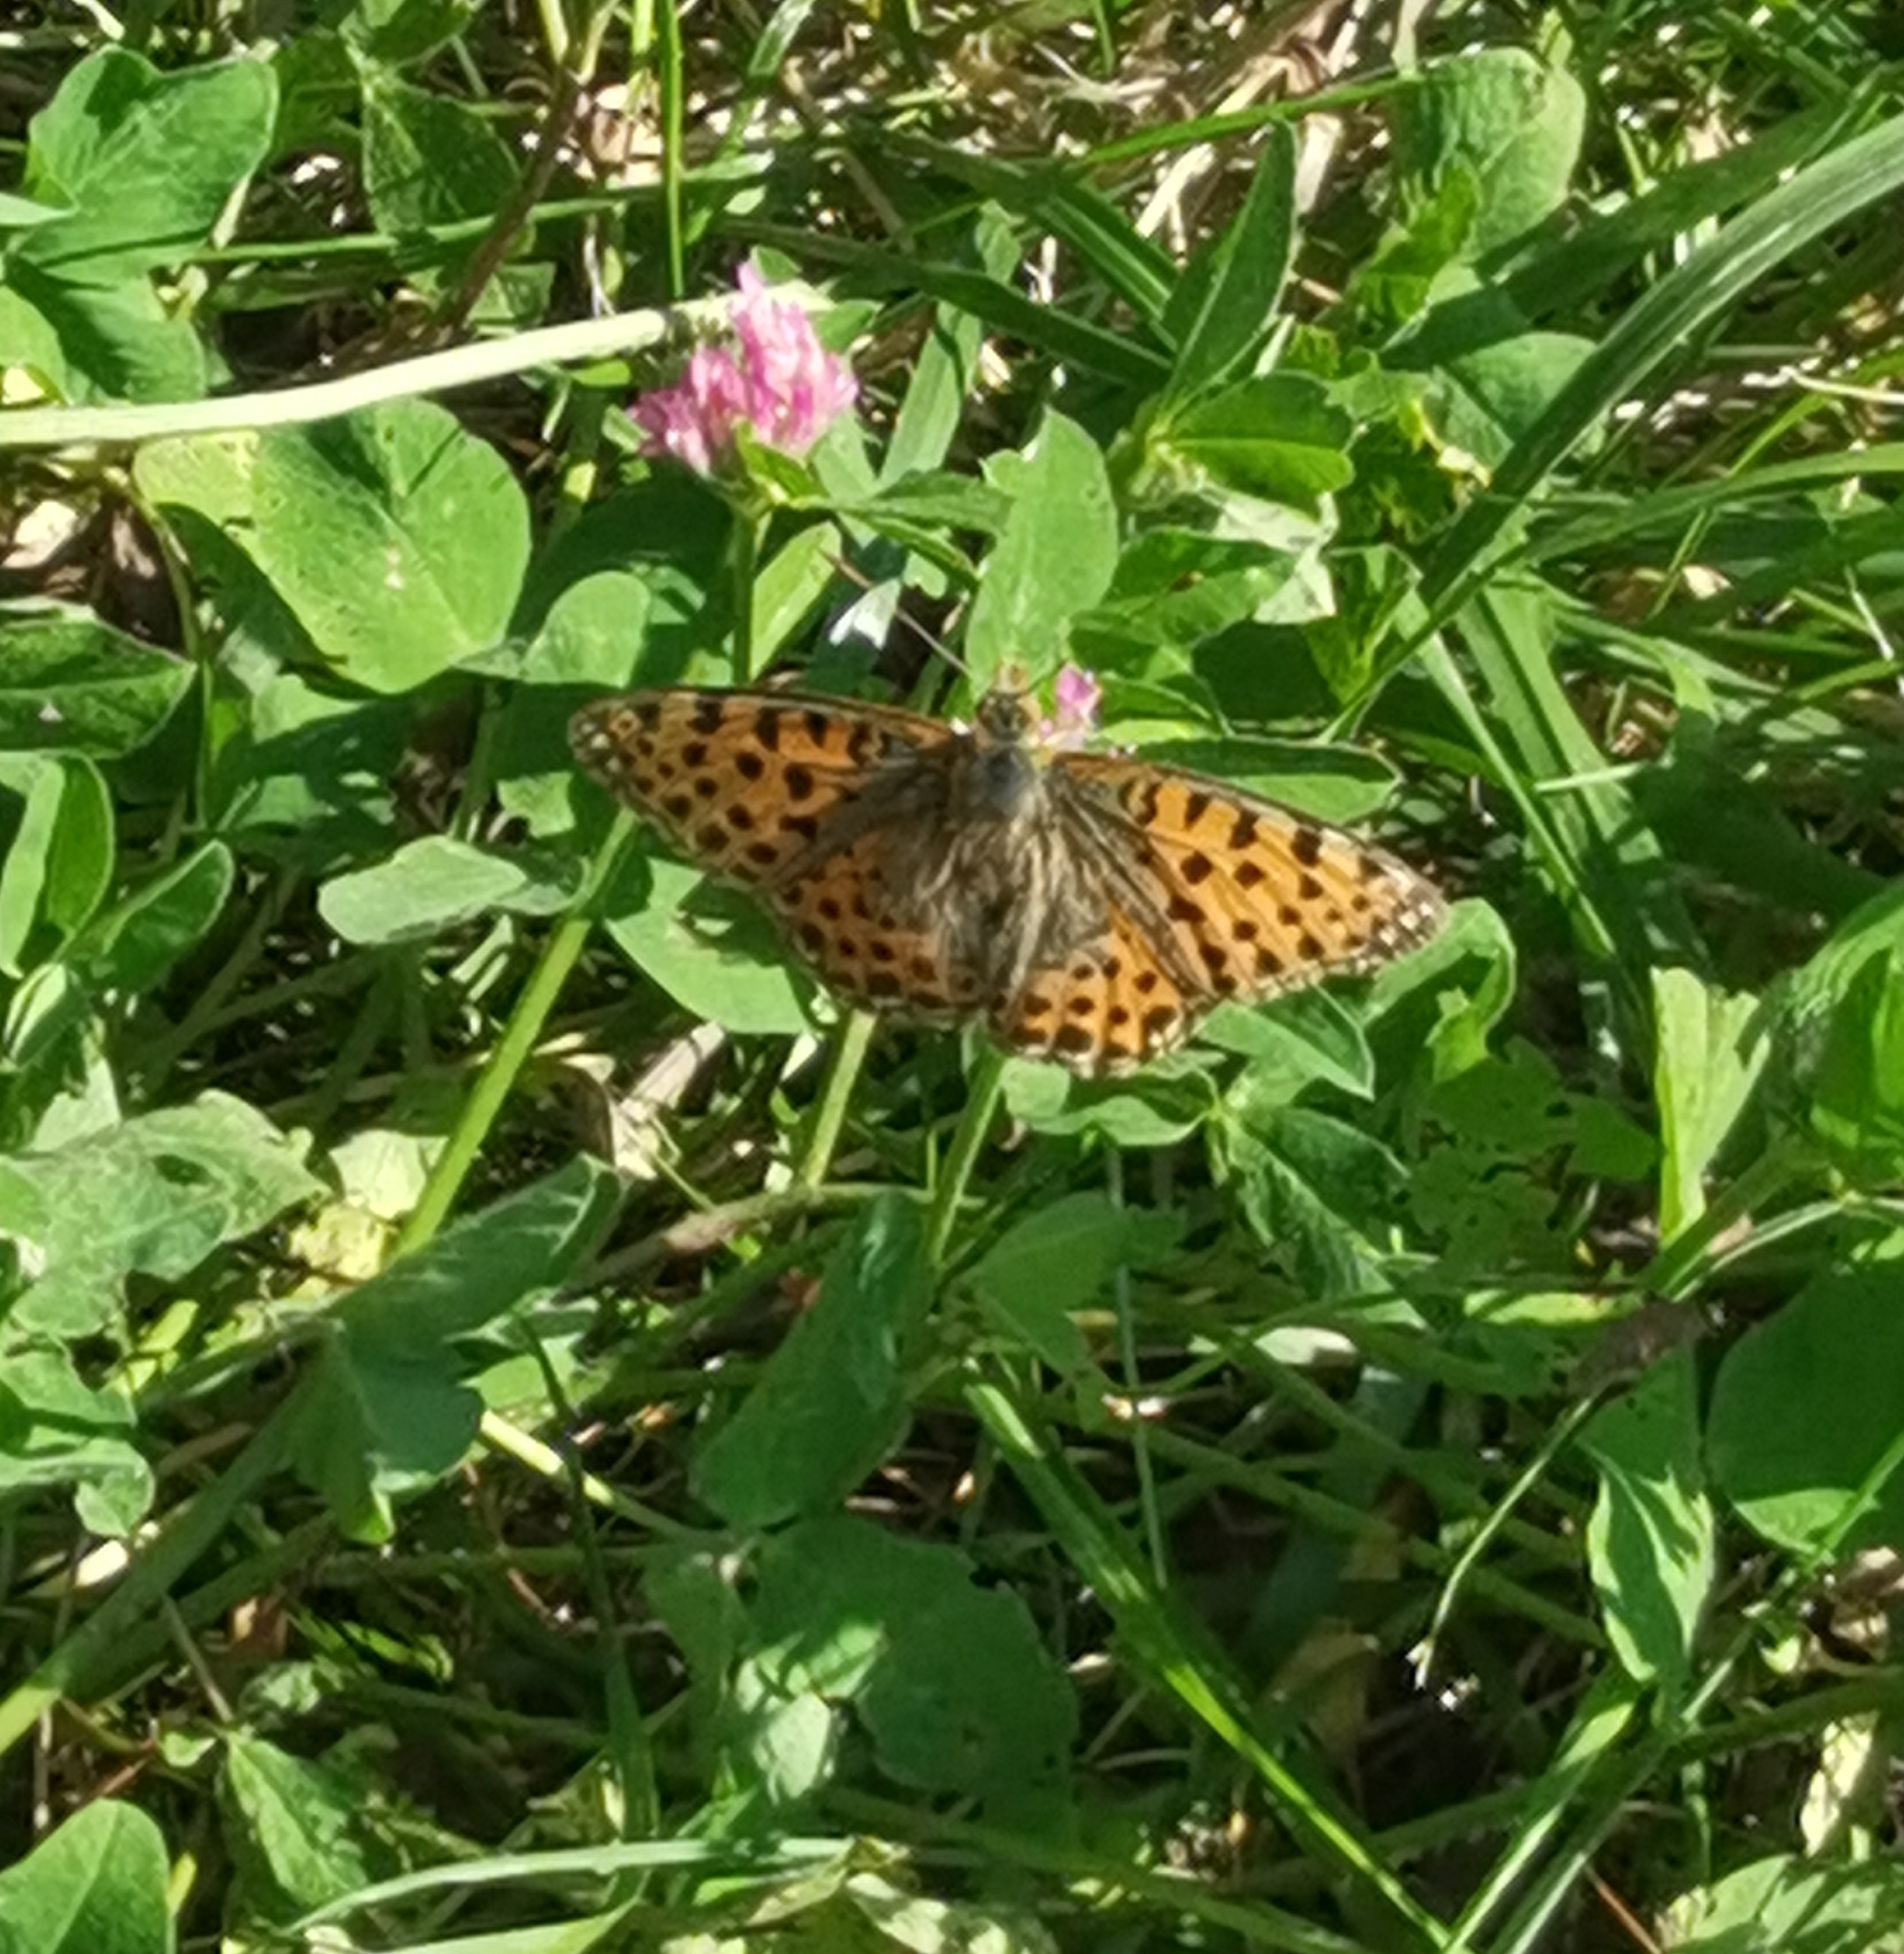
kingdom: Animalia
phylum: Arthropoda
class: Insecta
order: Lepidoptera
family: Nymphalidae
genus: Issoria
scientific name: Issoria lathonia
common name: Queen of spain fritillary
